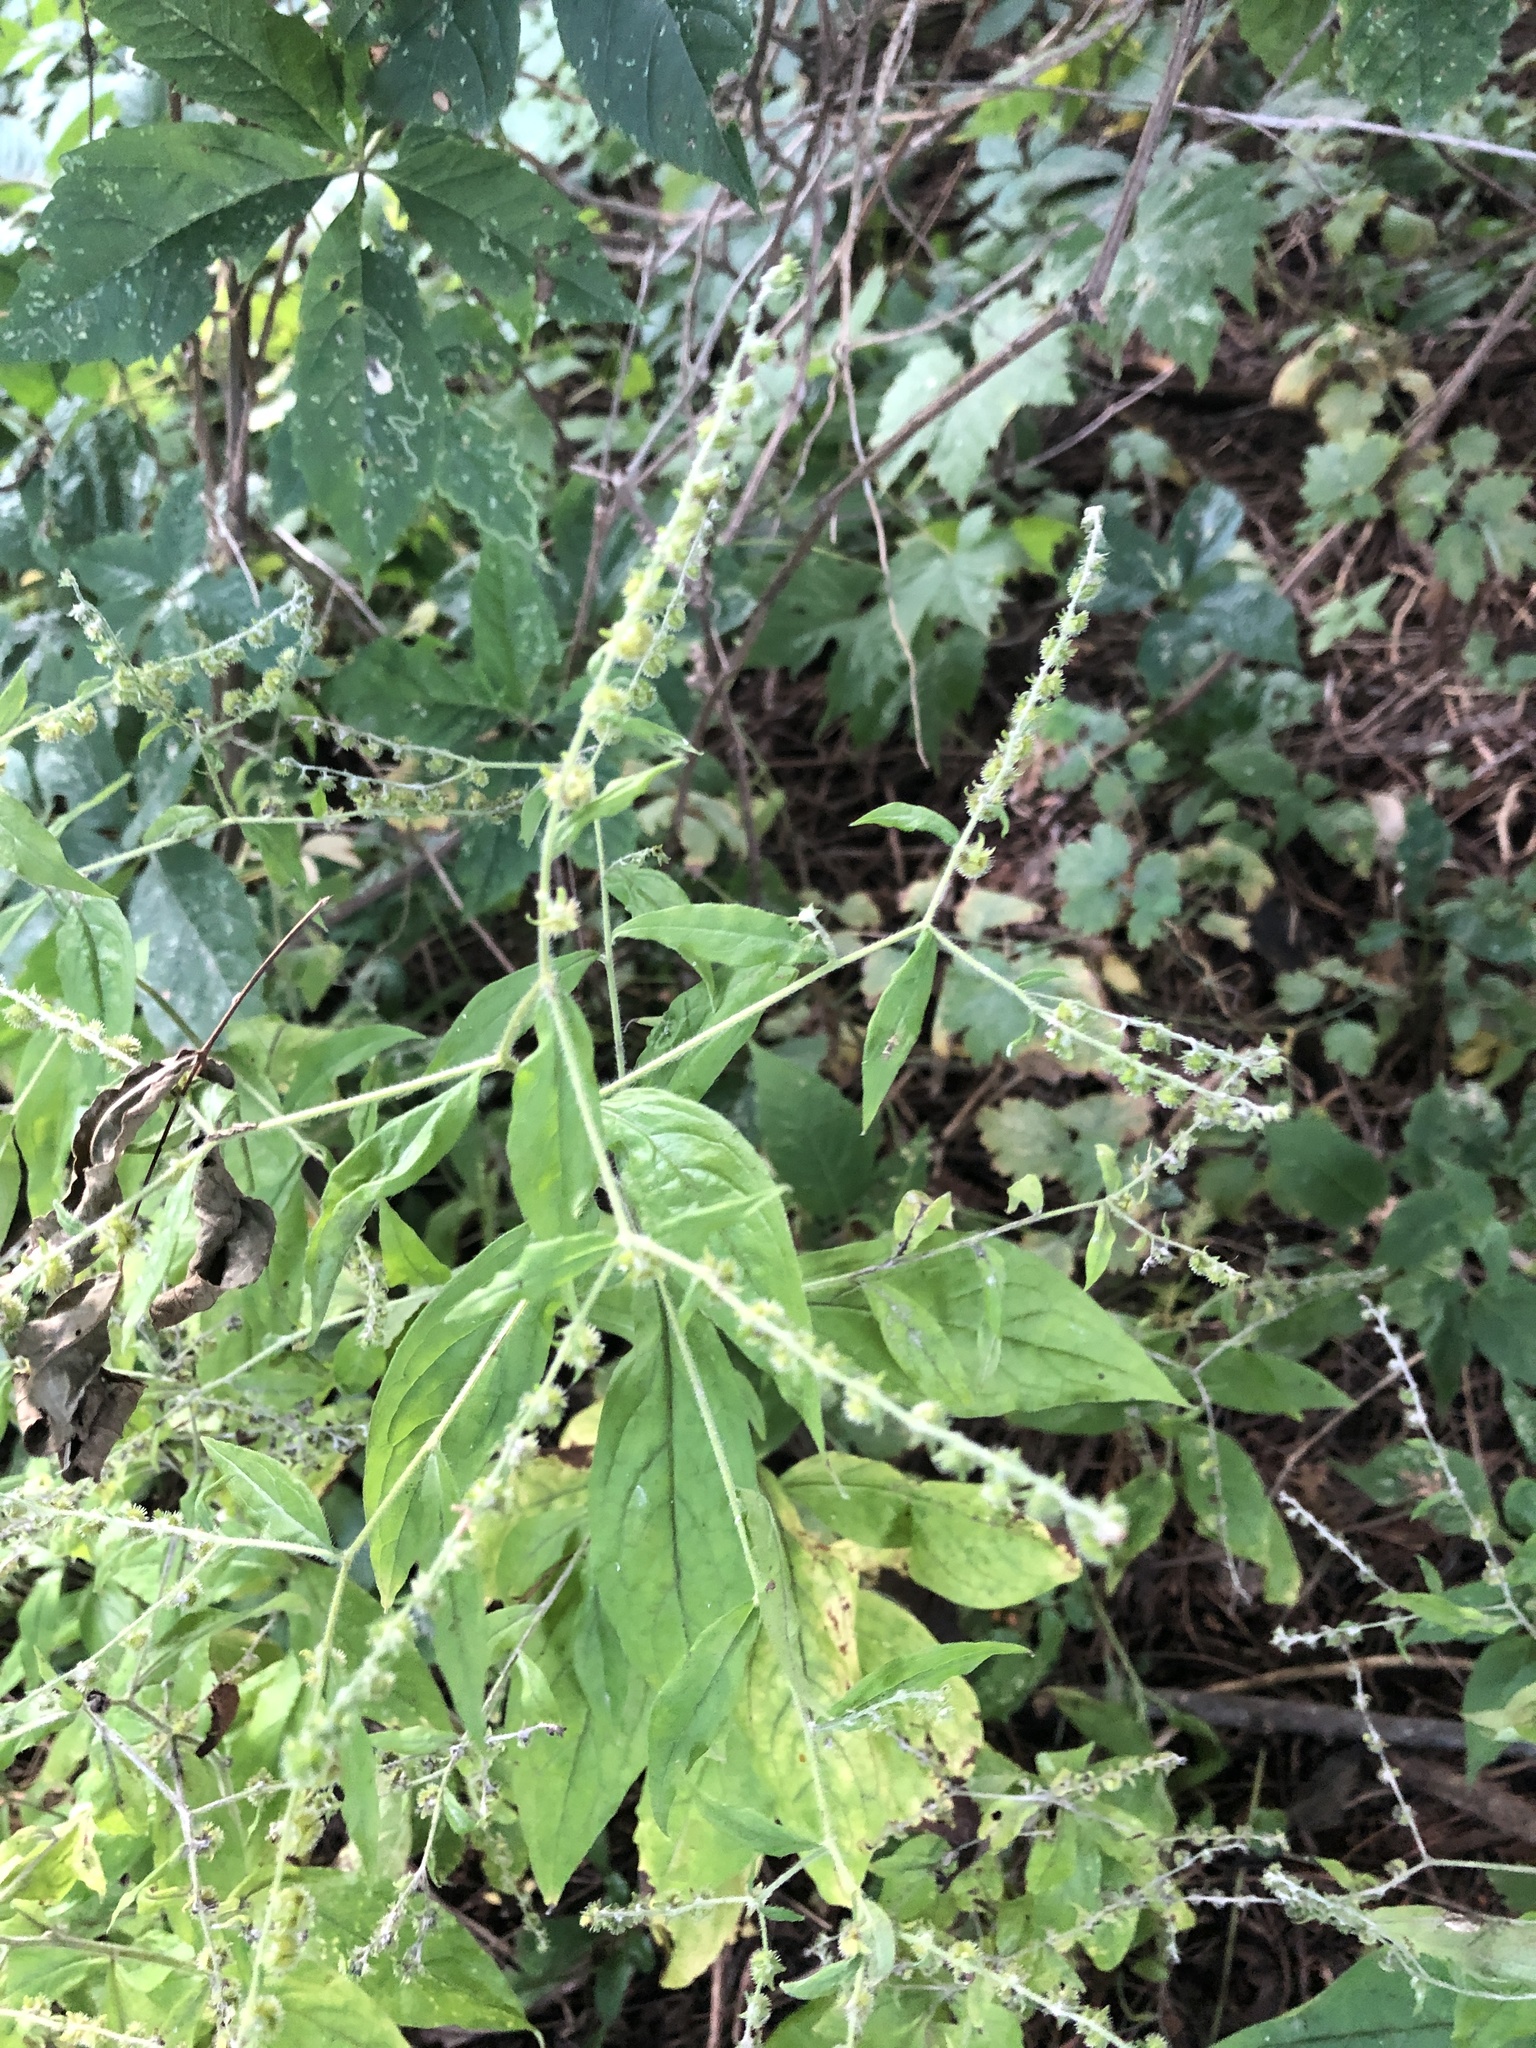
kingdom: Plantae
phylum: Tracheophyta
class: Magnoliopsida
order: Boraginales
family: Boraginaceae
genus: Hackelia
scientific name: Hackelia virginiana
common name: Beggar's-lice
